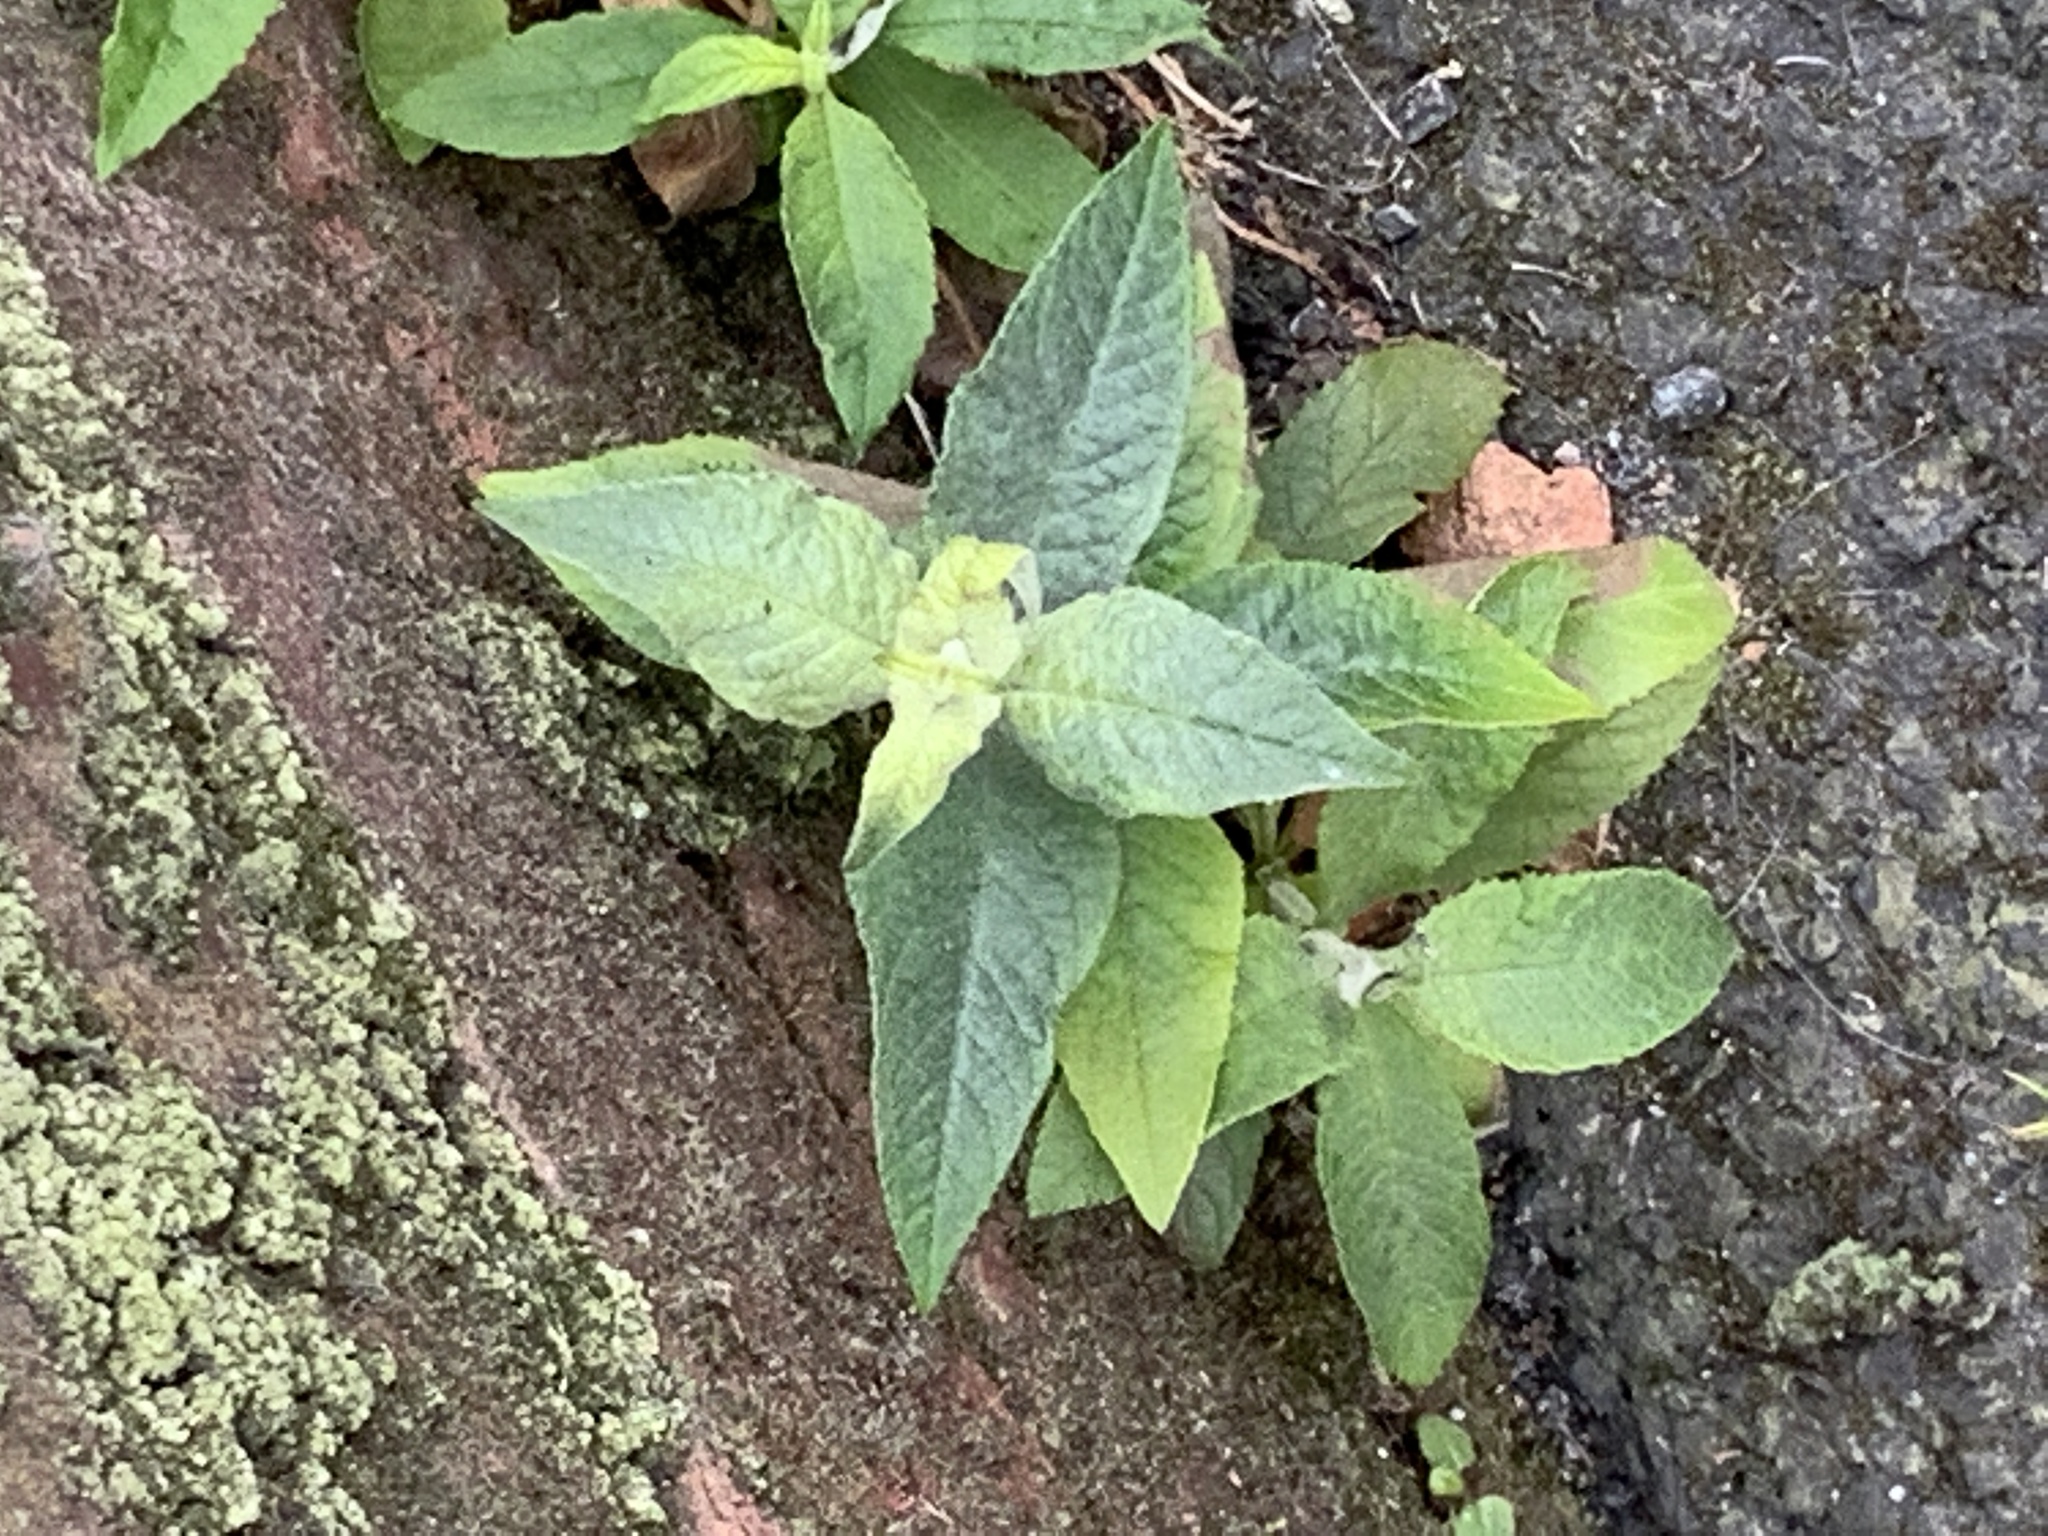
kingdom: Plantae
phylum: Tracheophyta
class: Magnoliopsida
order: Lamiales
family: Scrophulariaceae
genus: Buddleja
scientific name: Buddleja davidii
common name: Butterfly-bush
